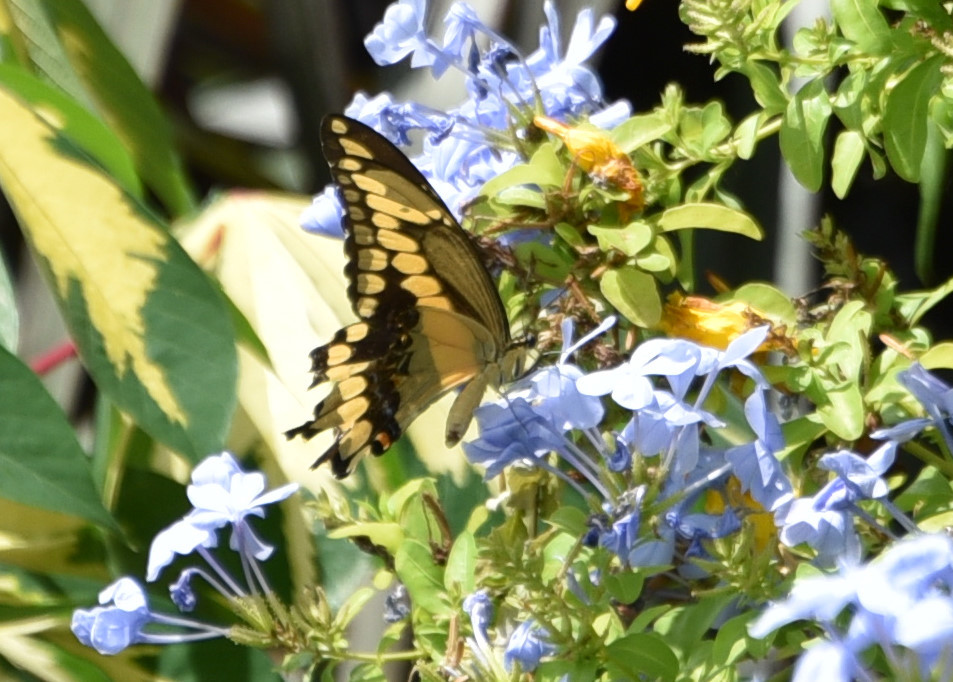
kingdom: Animalia
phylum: Arthropoda
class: Insecta
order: Lepidoptera
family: Papilionidae
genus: Papilio
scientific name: Papilio cresphontes
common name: Giant swallowtail
